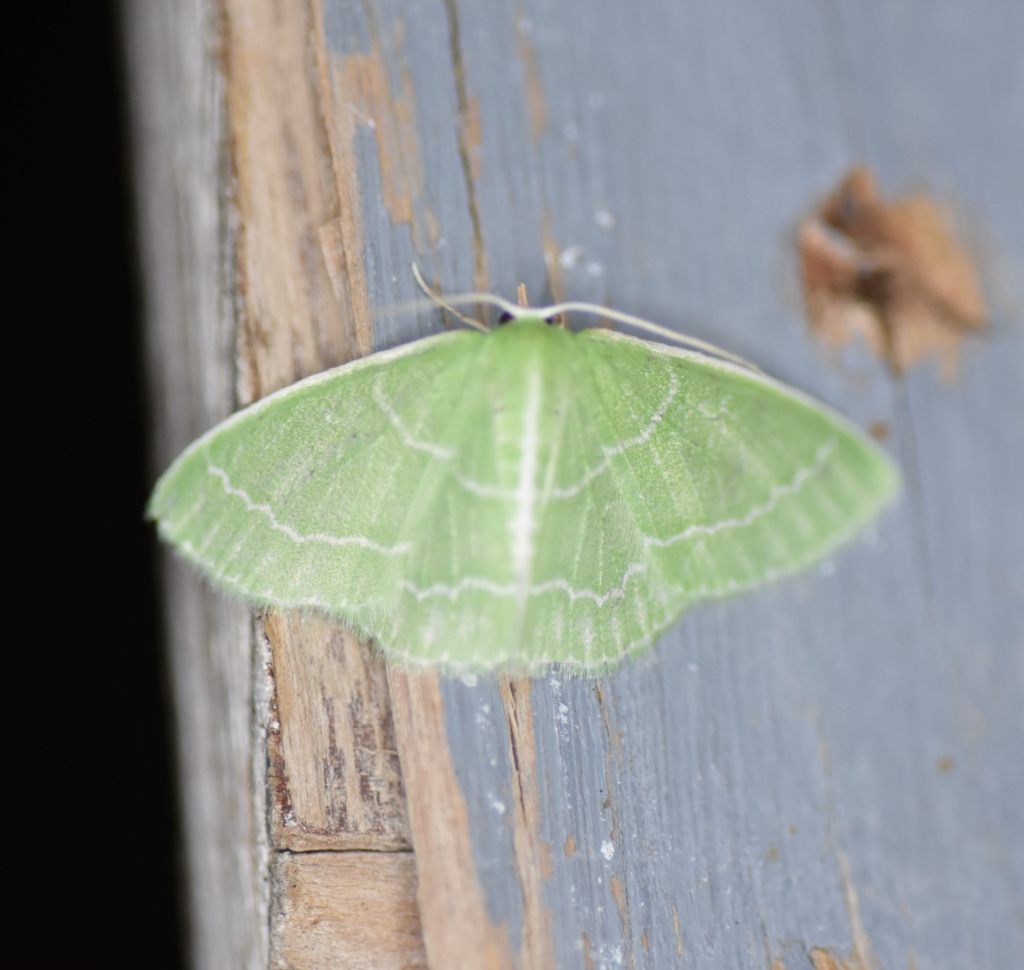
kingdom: Animalia
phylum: Arthropoda
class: Insecta
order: Lepidoptera
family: Geometridae
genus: Synchlora
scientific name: Synchlora aerata
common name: Wavy-lined emerald
